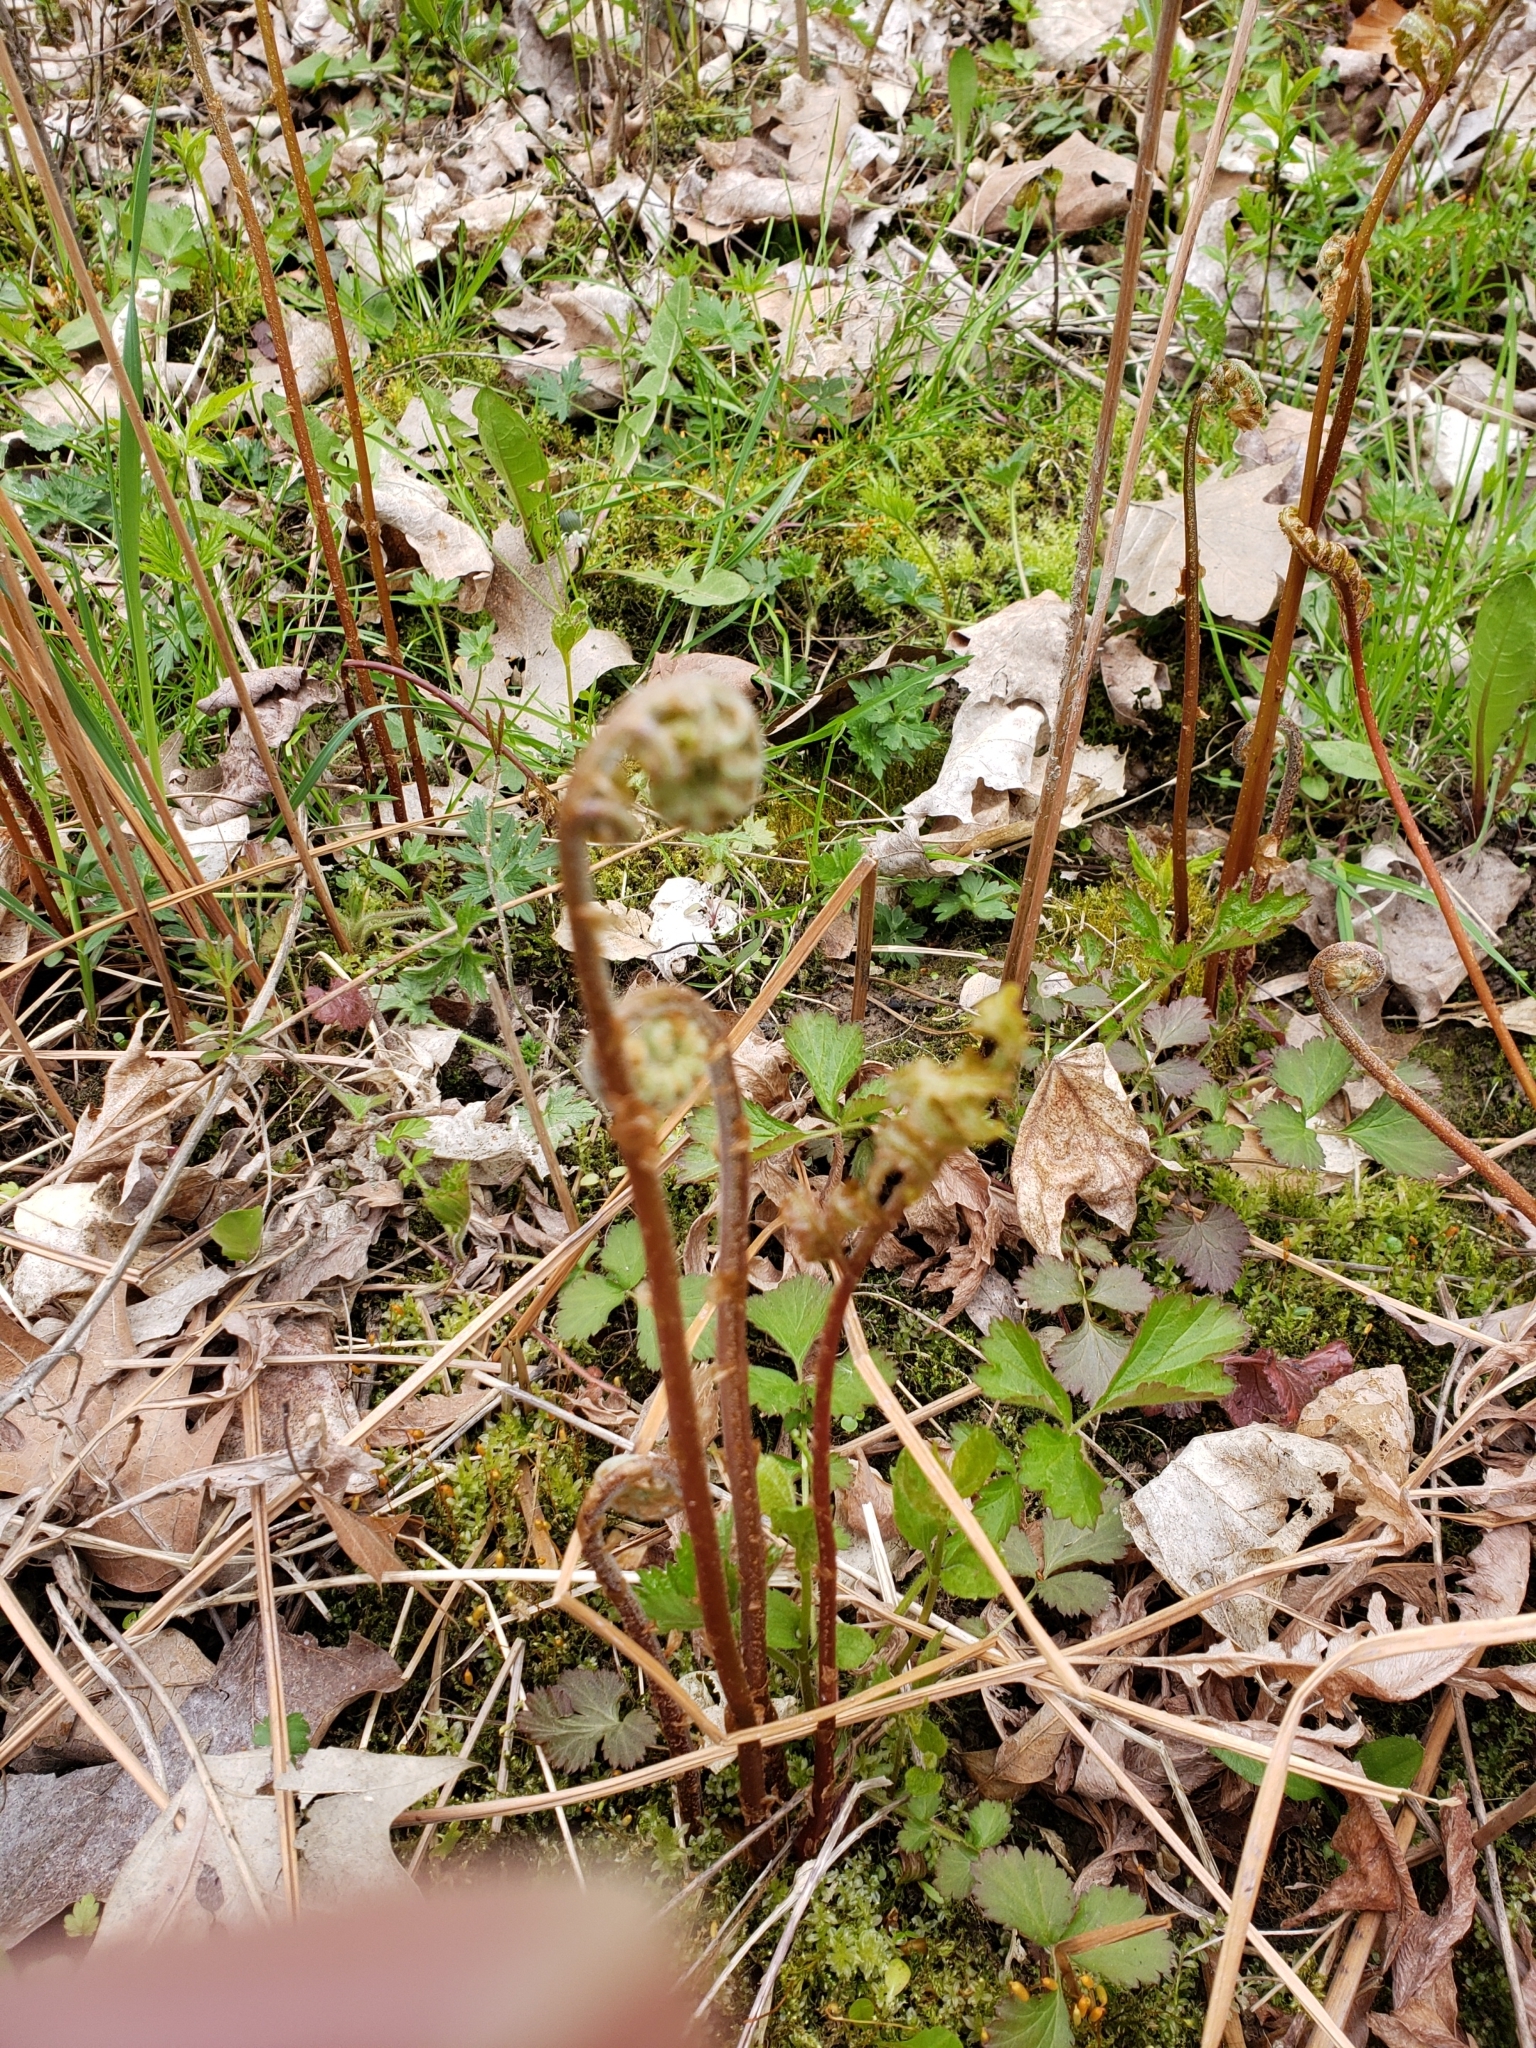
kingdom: Plantae
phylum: Tracheophyta
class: Polypodiopsida
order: Polypodiales
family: Onocleaceae
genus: Onoclea
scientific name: Onoclea sensibilis
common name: Sensitive fern
